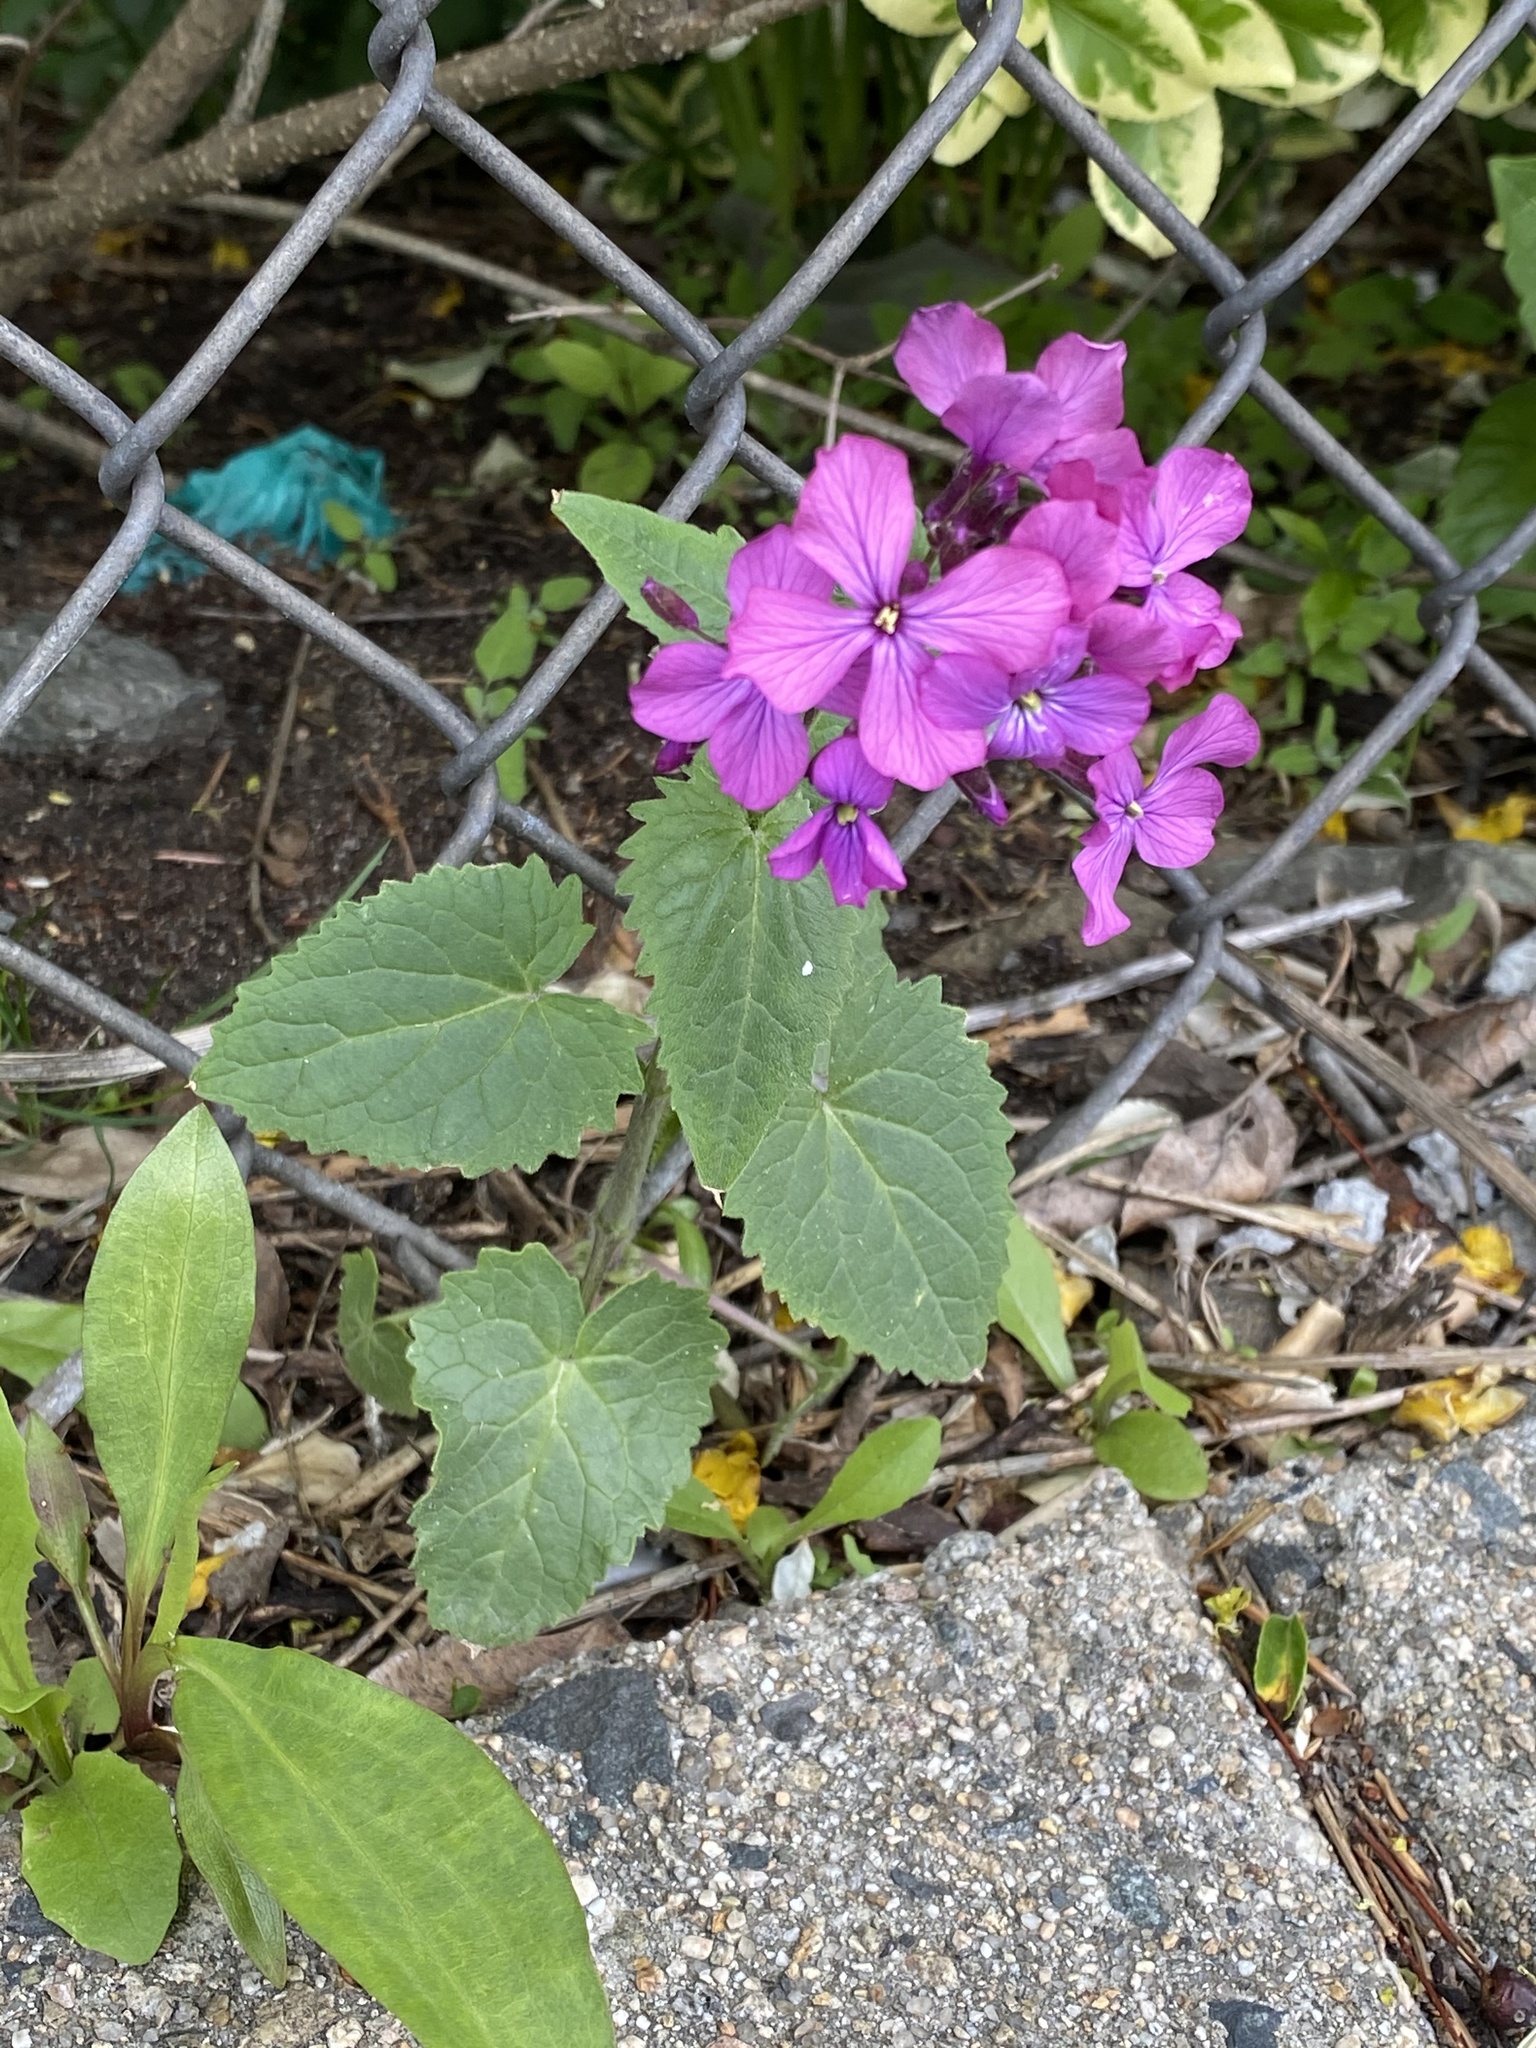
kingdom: Plantae
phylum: Tracheophyta
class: Magnoliopsida
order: Brassicales
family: Brassicaceae
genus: Lunaria
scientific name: Lunaria annua
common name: Honesty
